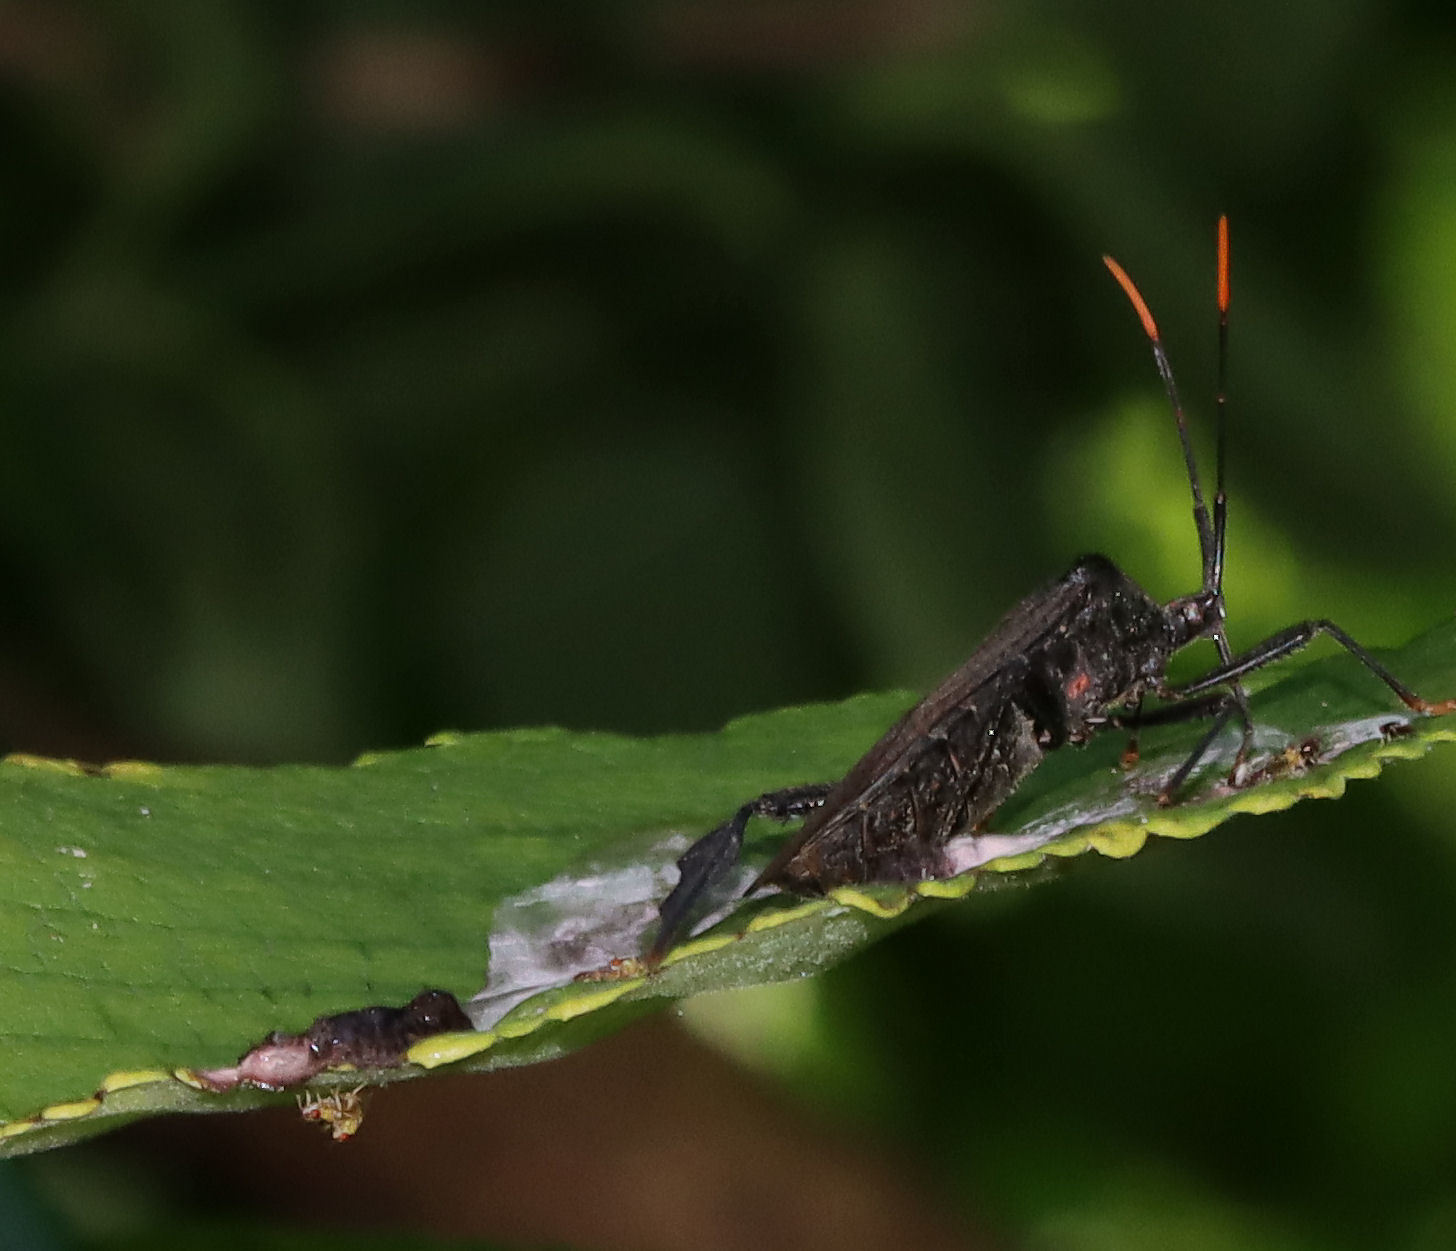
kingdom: Animalia
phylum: Arthropoda
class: Insecta
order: Hemiptera
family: Coreidae
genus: Acanthocephala
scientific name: Acanthocephala terminalis
